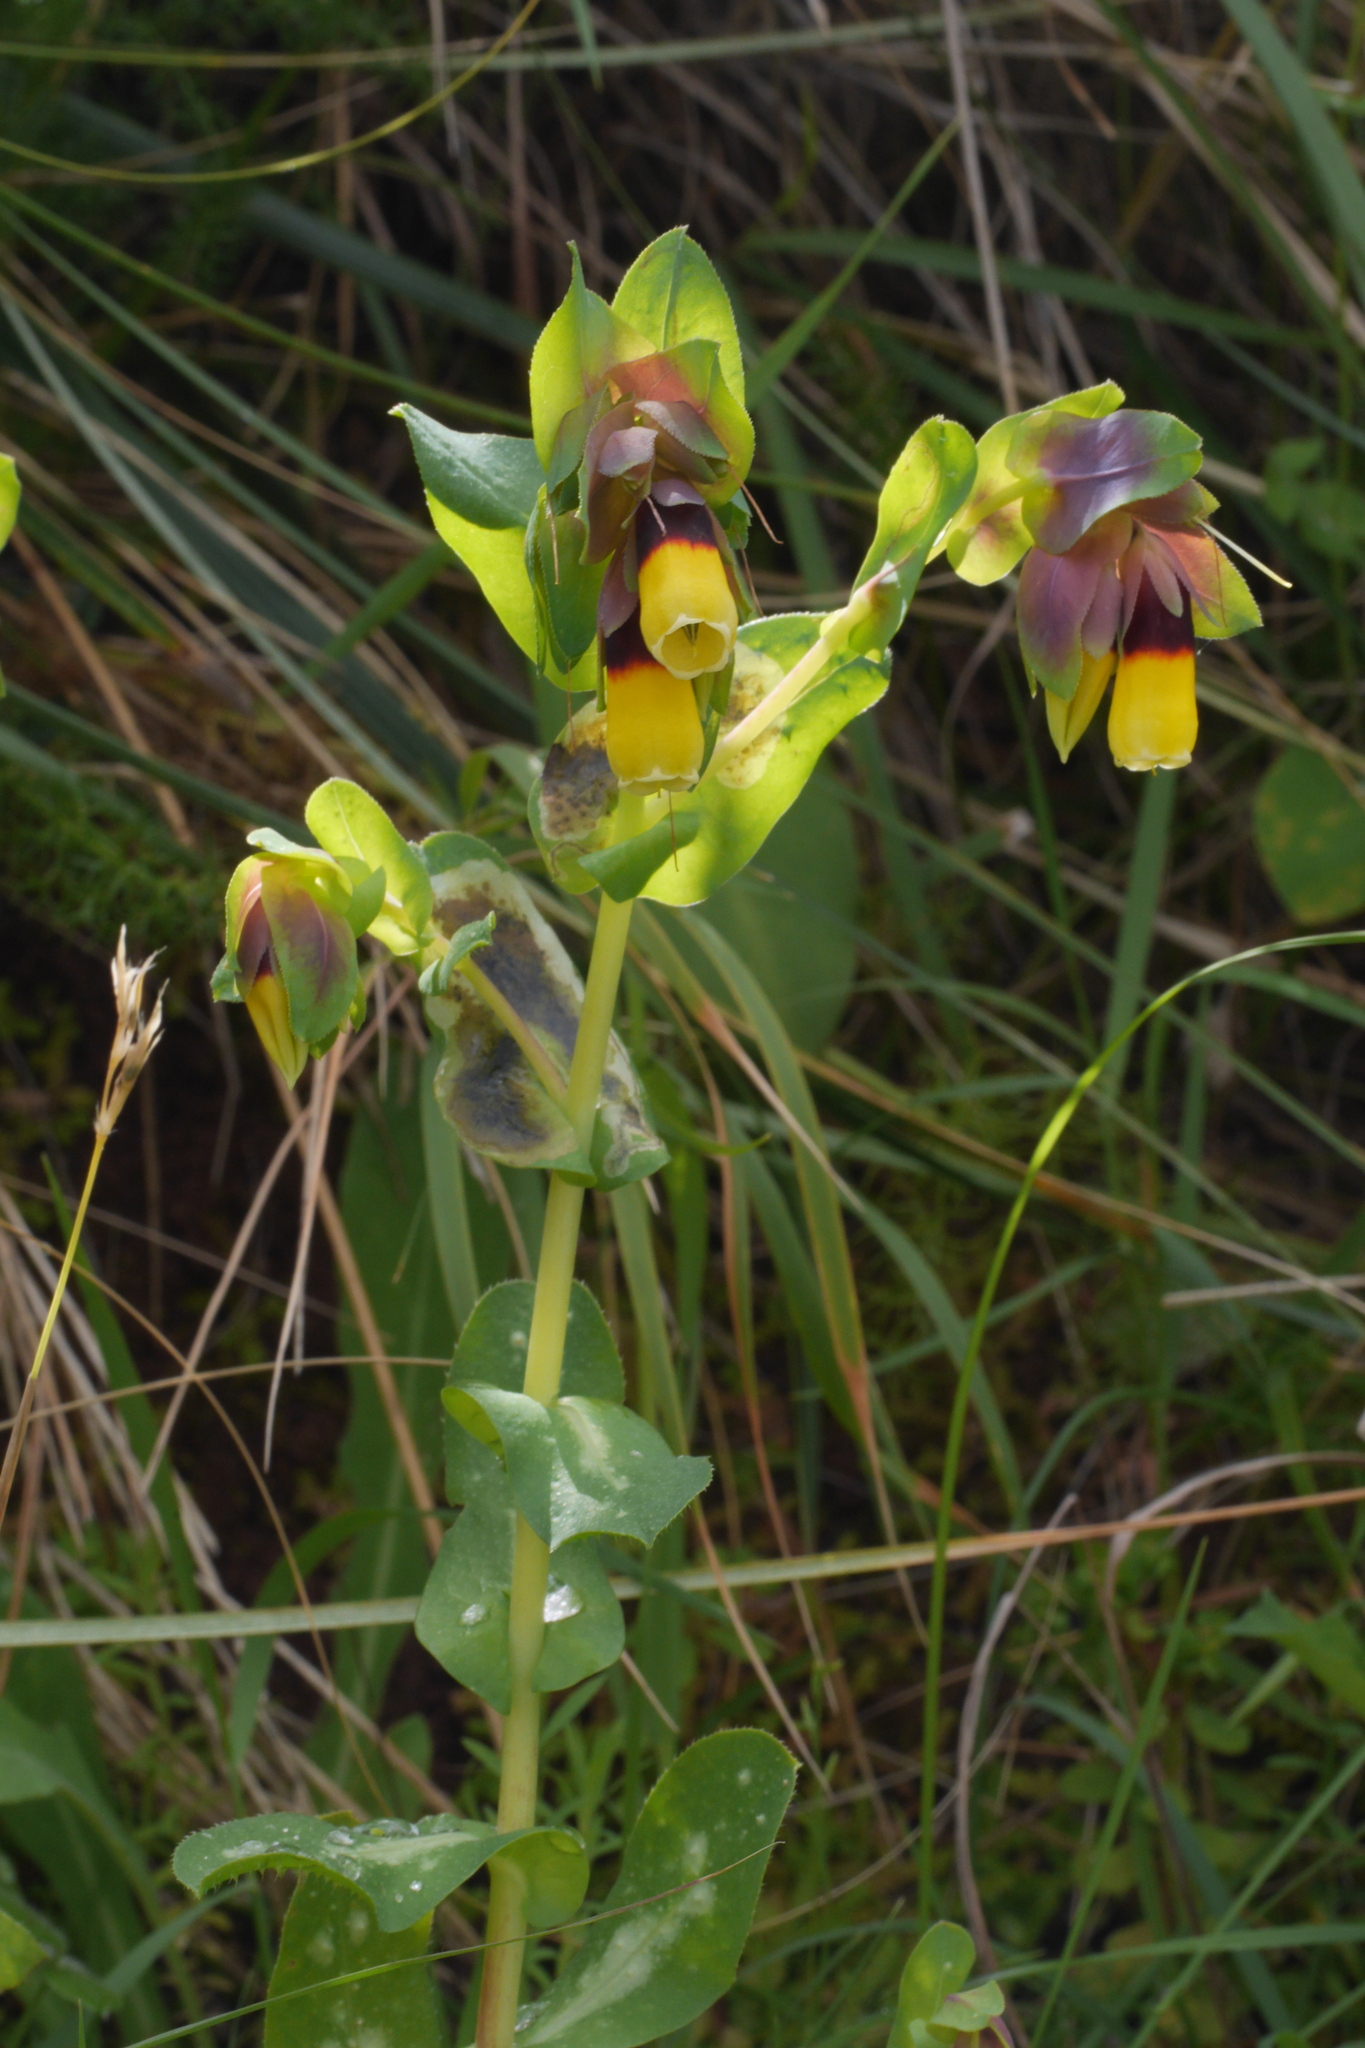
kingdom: Plantae
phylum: Tracheophyta
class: Magnoliopsida
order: Boraginales
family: Boraginaceae
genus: Cerinthe
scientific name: Cerinthe major
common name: Greater honeywort
